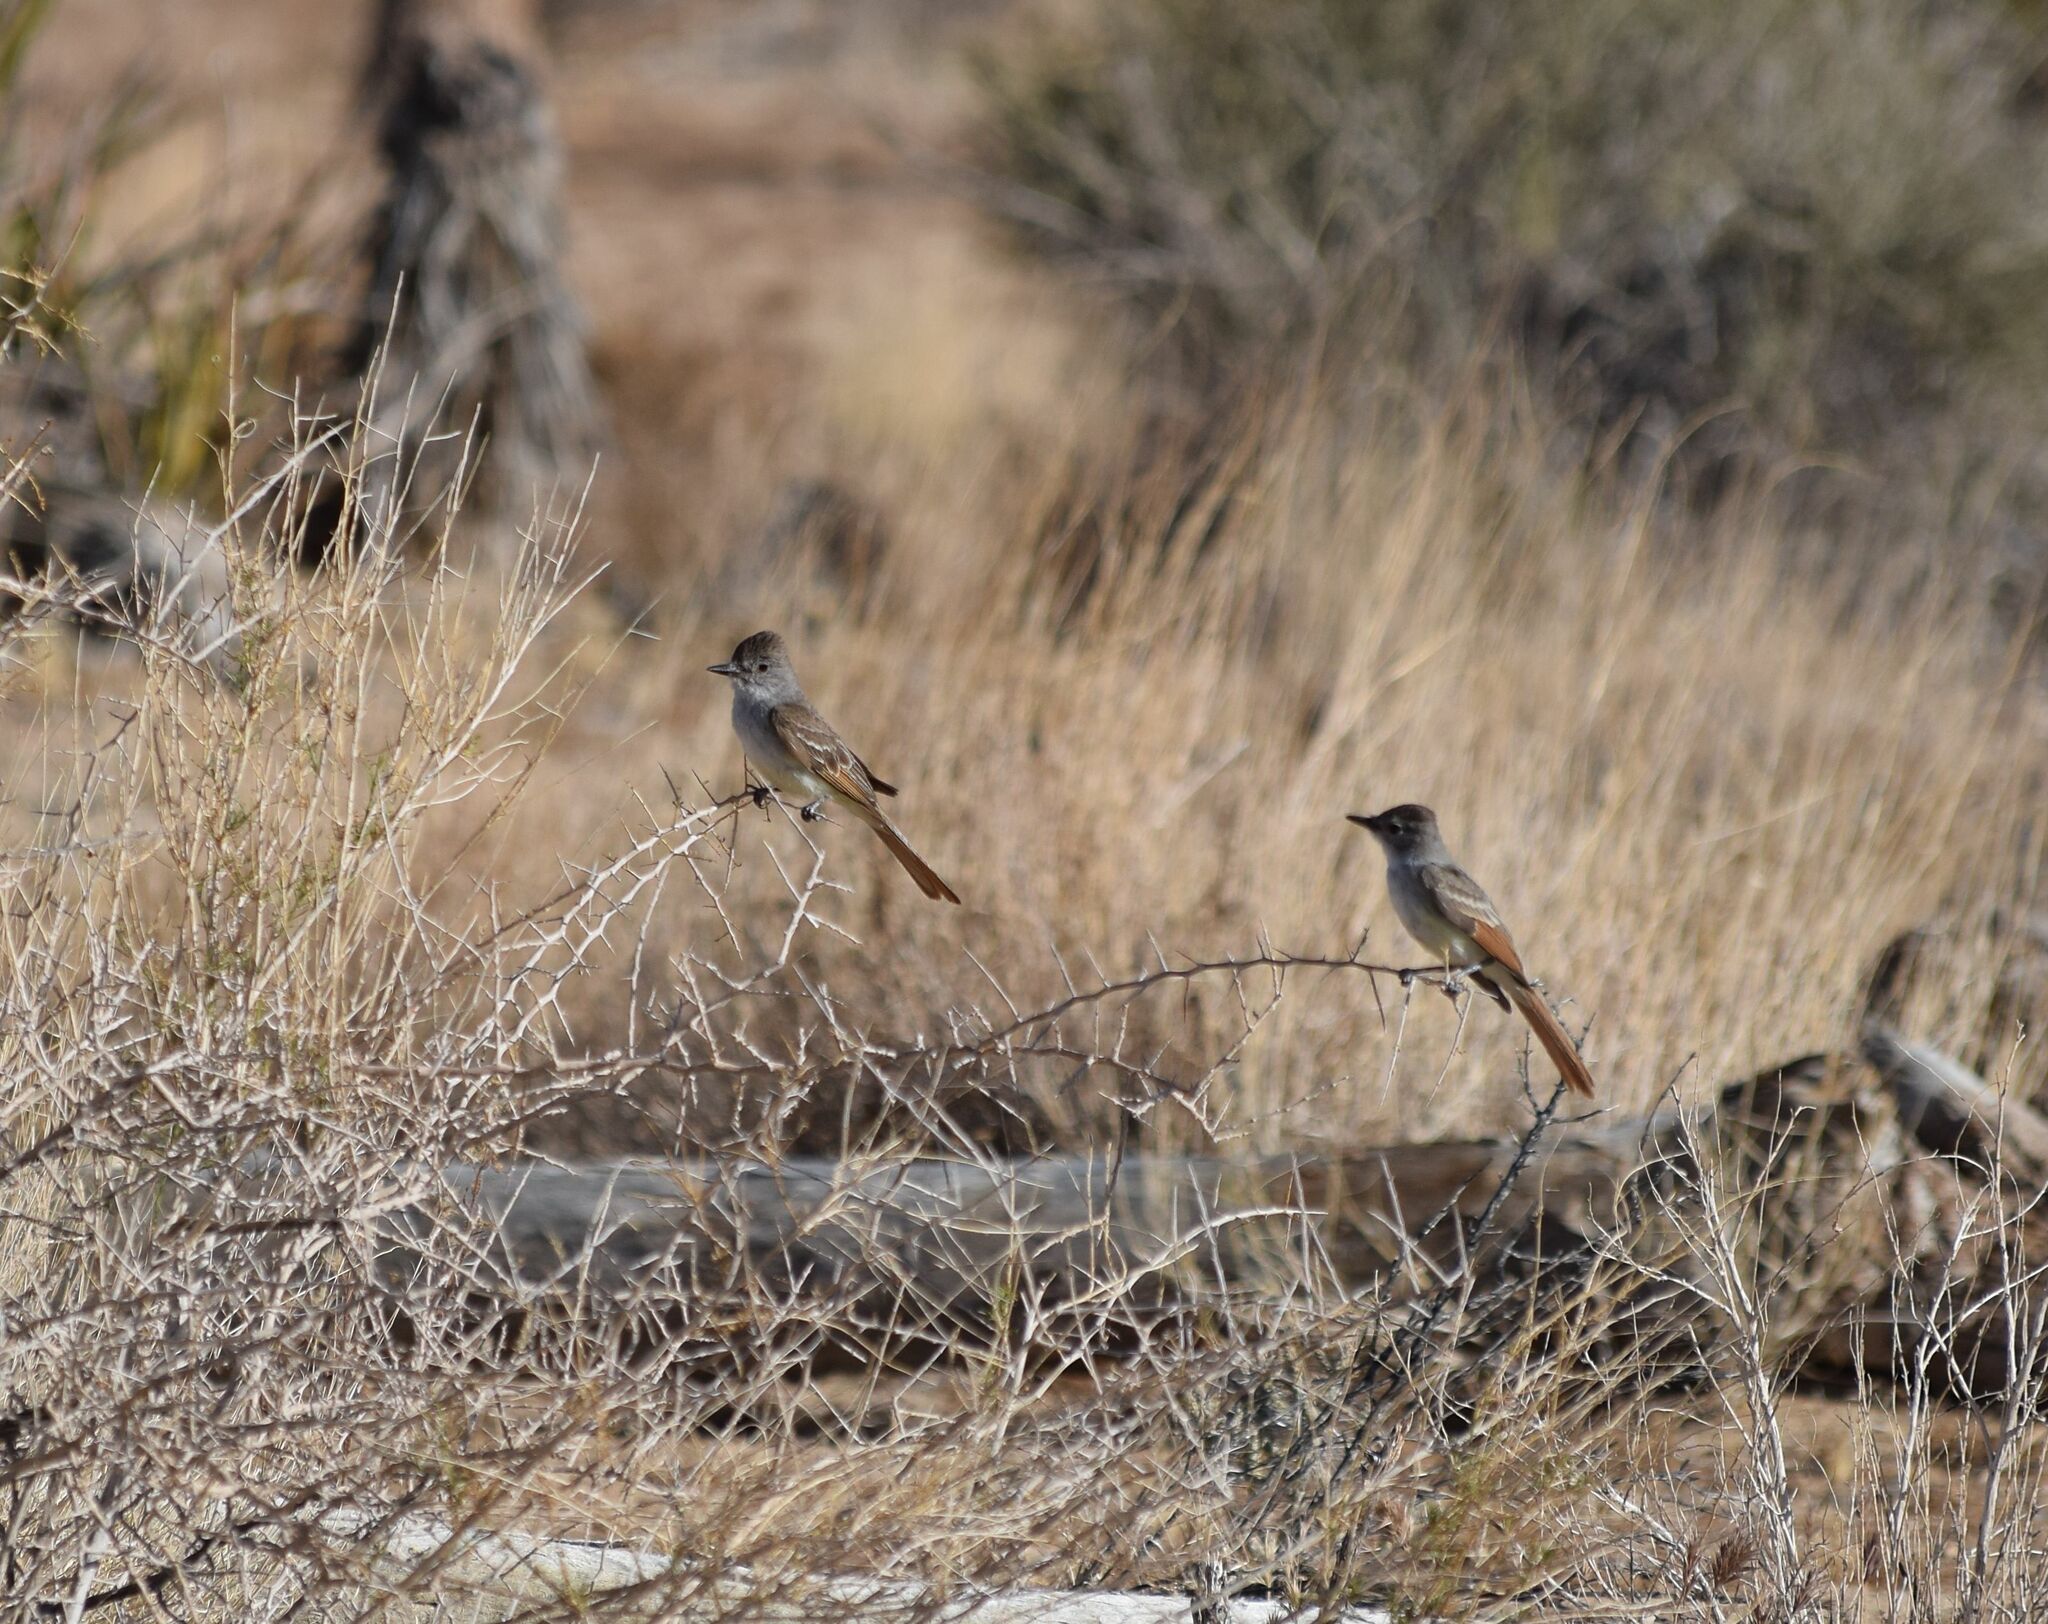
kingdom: Animalia
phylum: Chordata
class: Aves
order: Passeriformes
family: Tyrannidae
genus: Myiarchus
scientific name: Myiarchus cinerascens
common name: Ash-throated flycatcher
